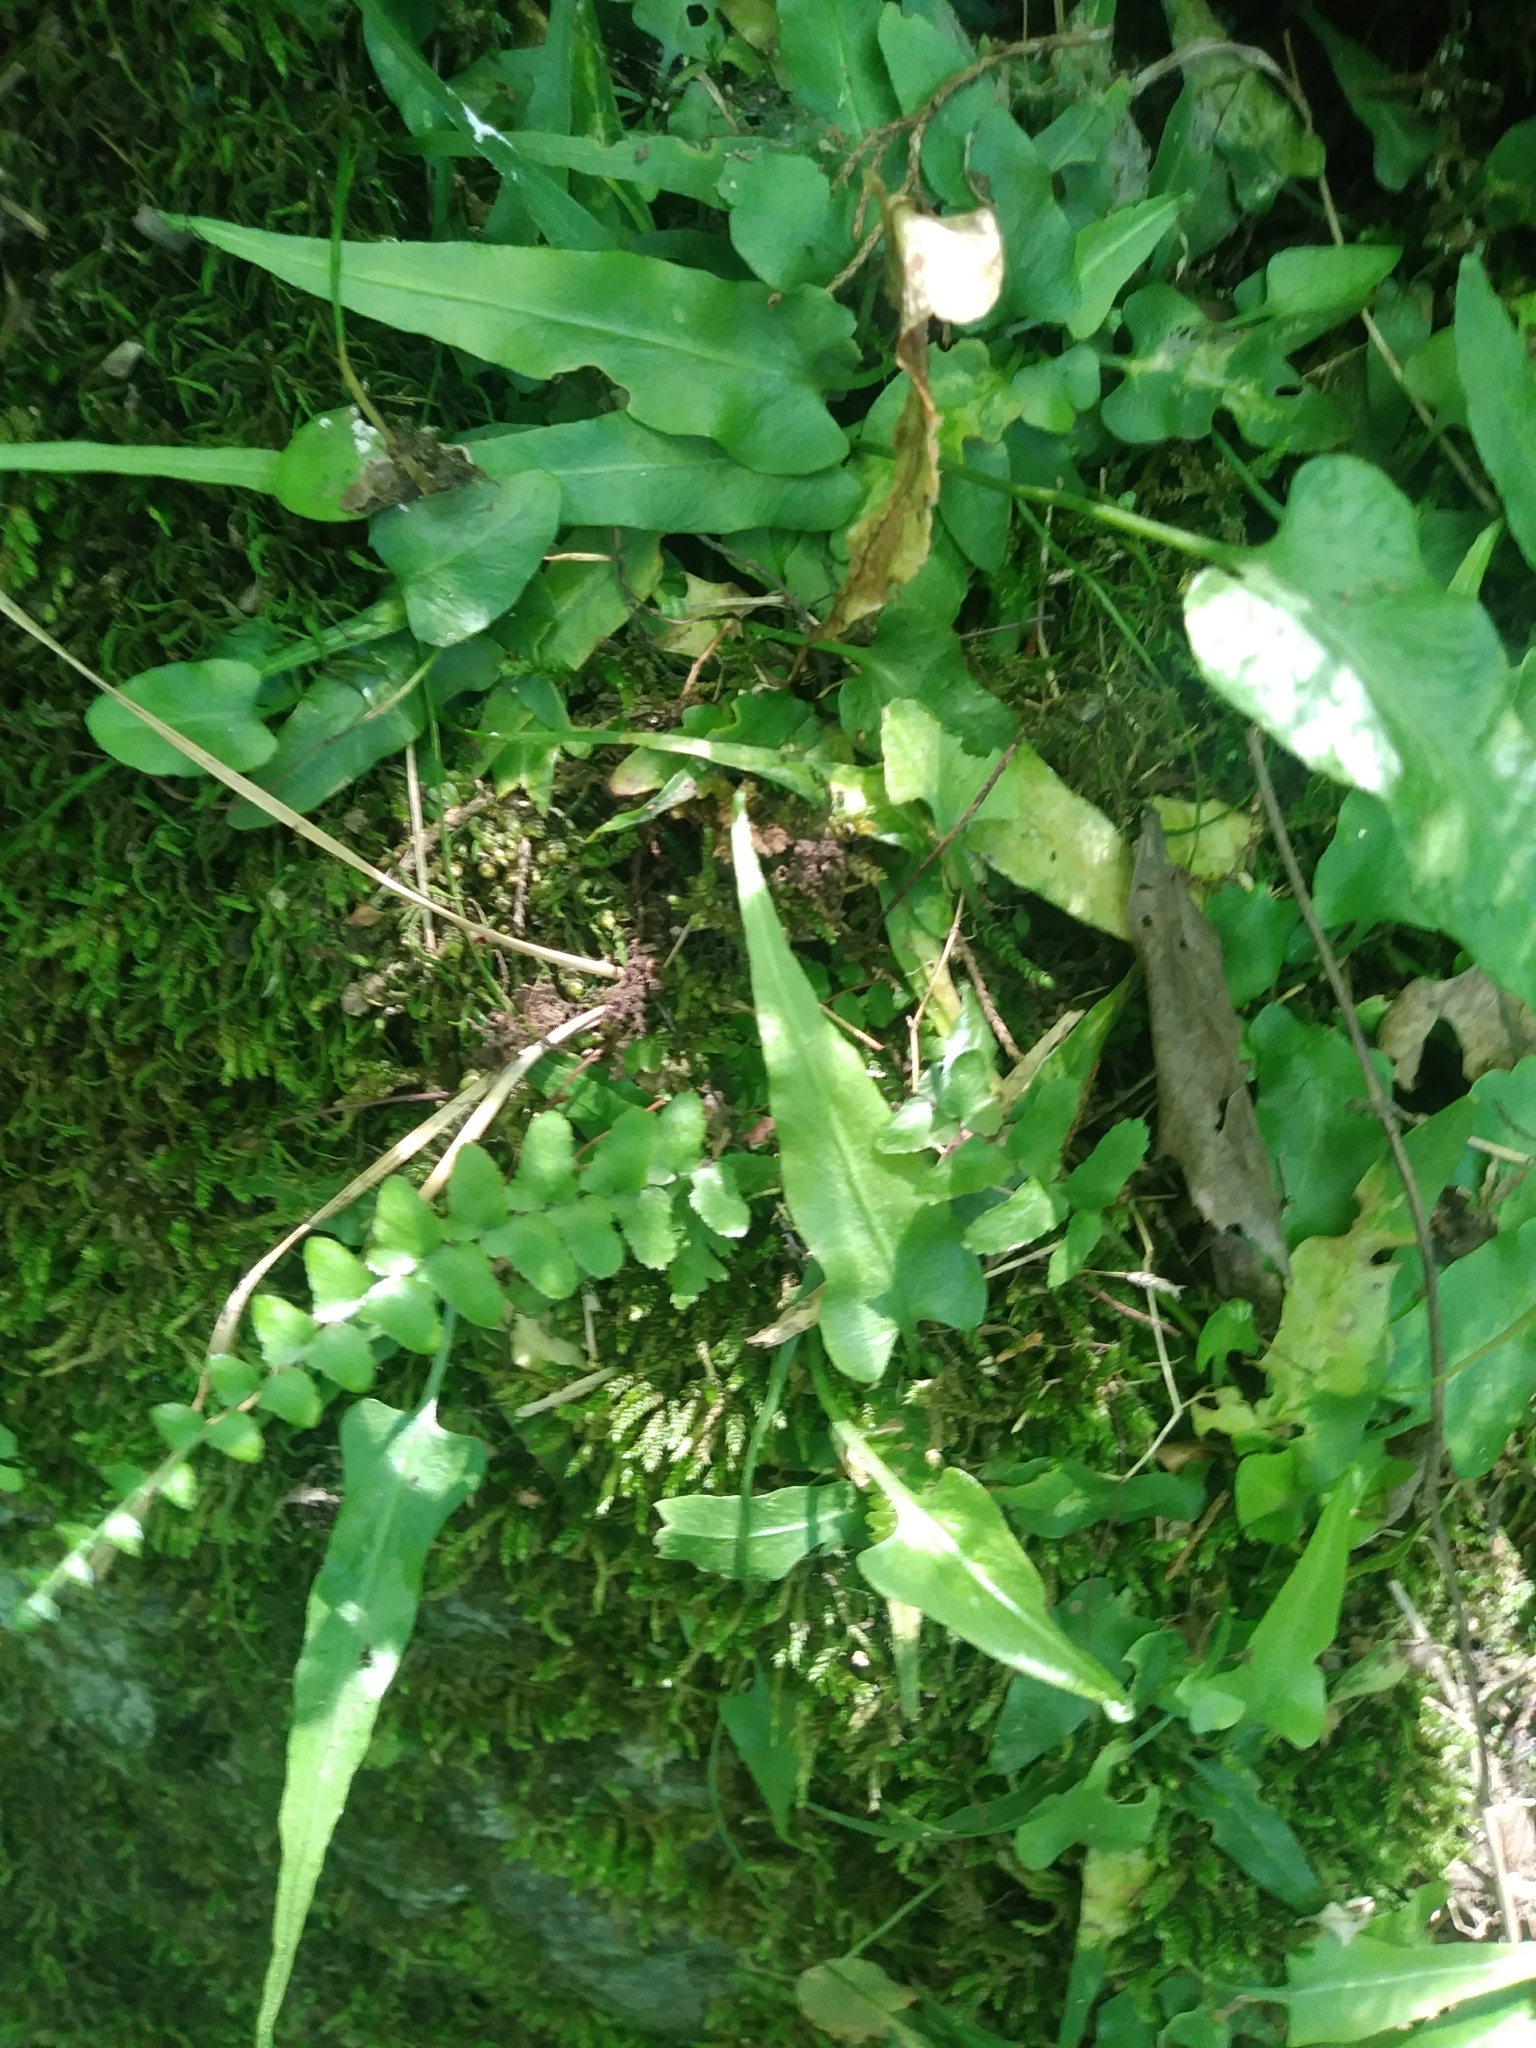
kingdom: Plantae
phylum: Tracheophyta
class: Polypodiopsida
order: Polypodiales
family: Aspleniaceae
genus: Asplenium
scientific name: Asplenium rhizophyllum
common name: Walking fern
